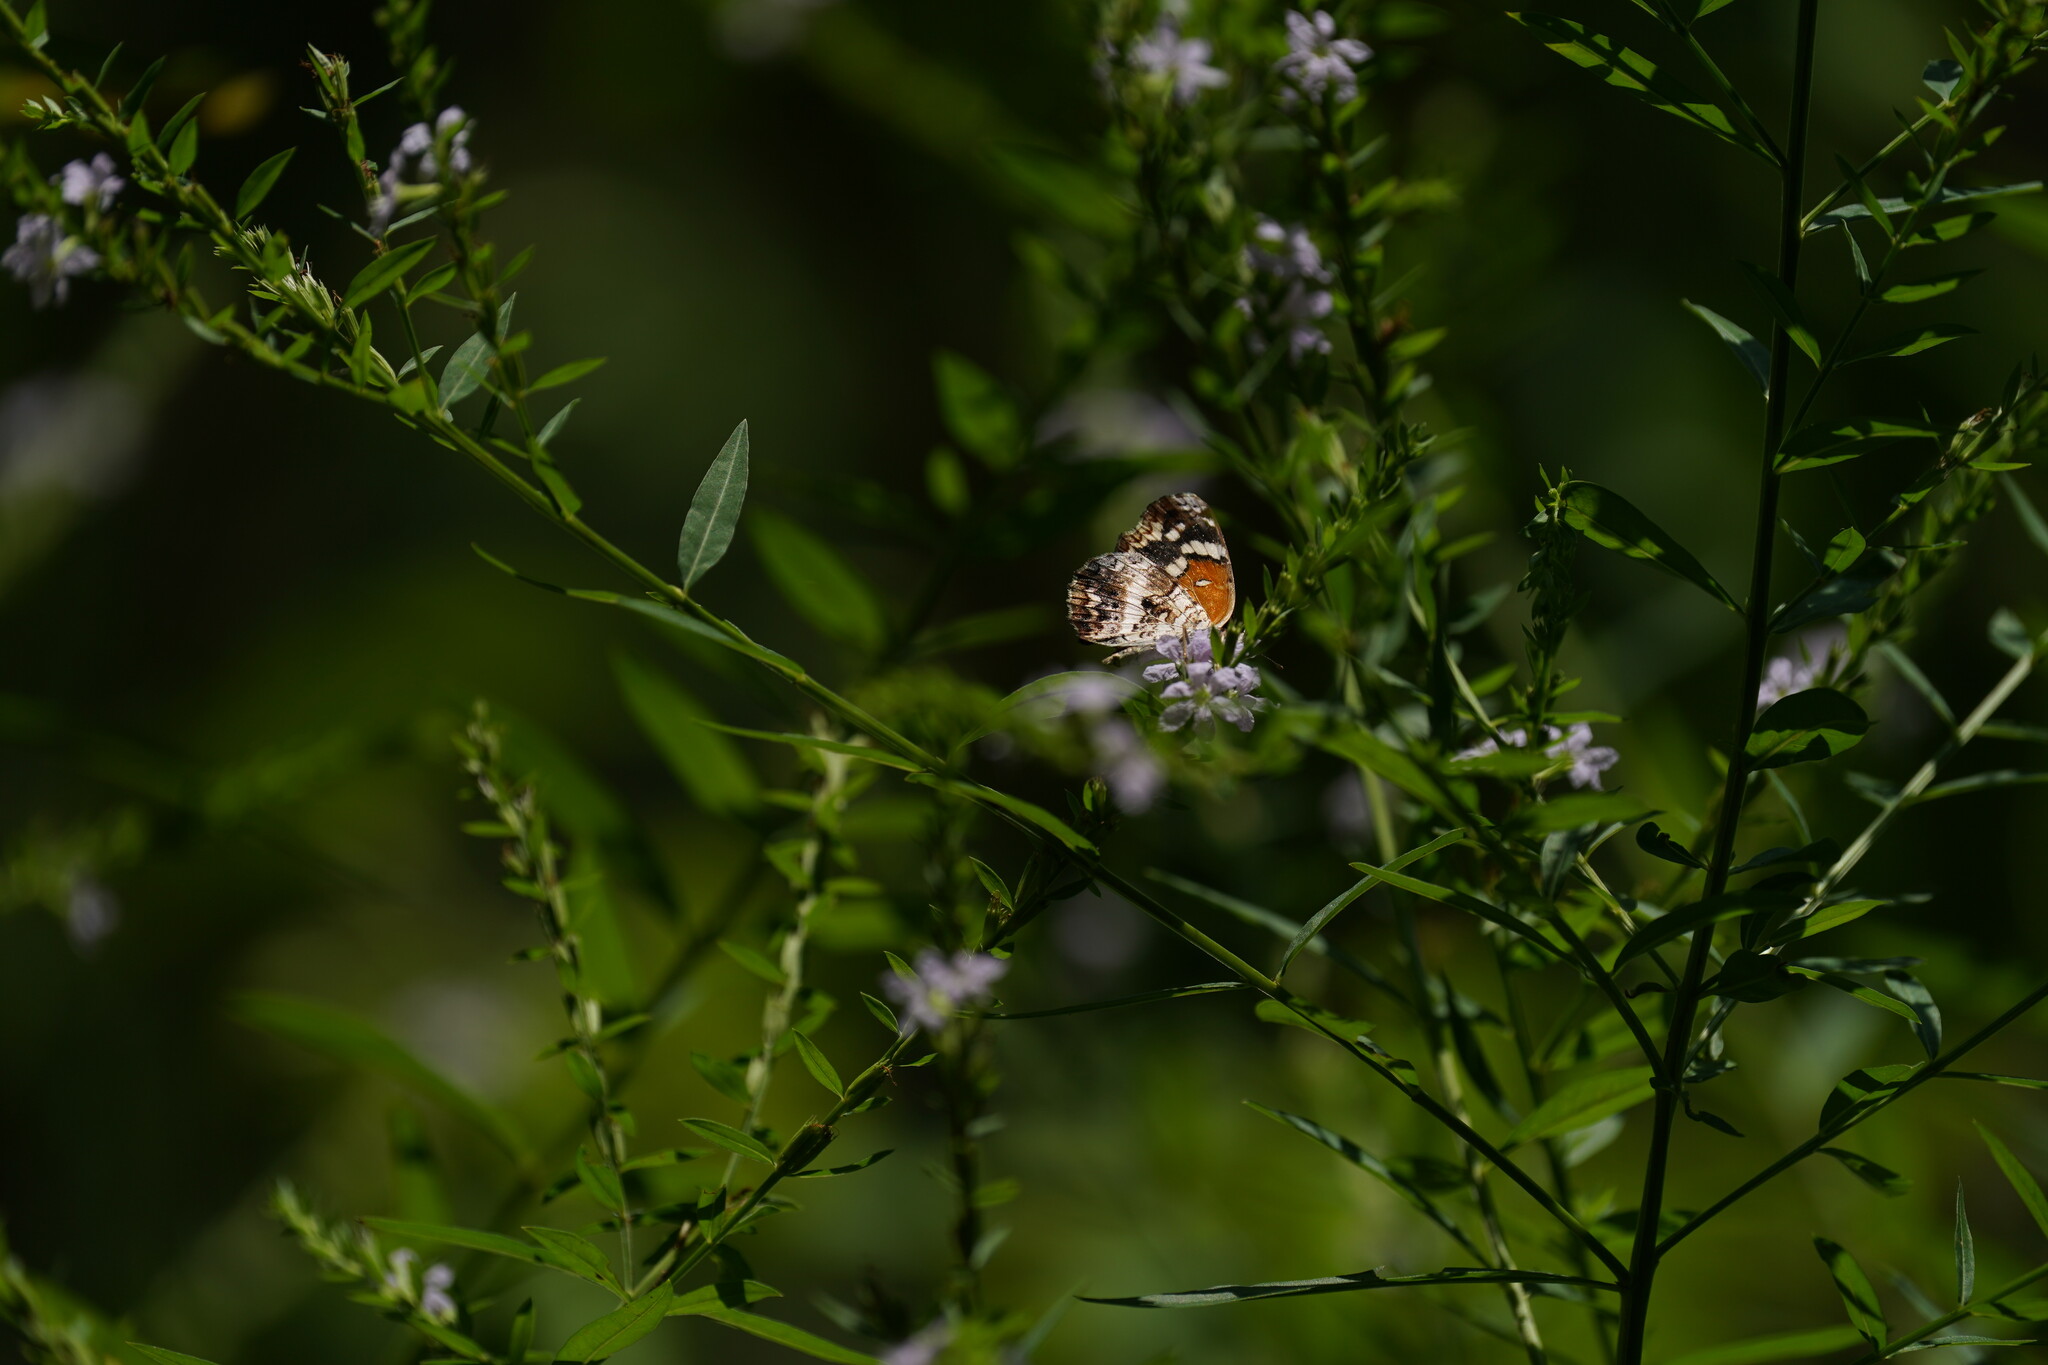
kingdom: Animalia
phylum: Arthropoda
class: Insecta
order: Lepidoptera
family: Nymphalidae
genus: Anthanassa
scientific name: Anthanassa taxana
